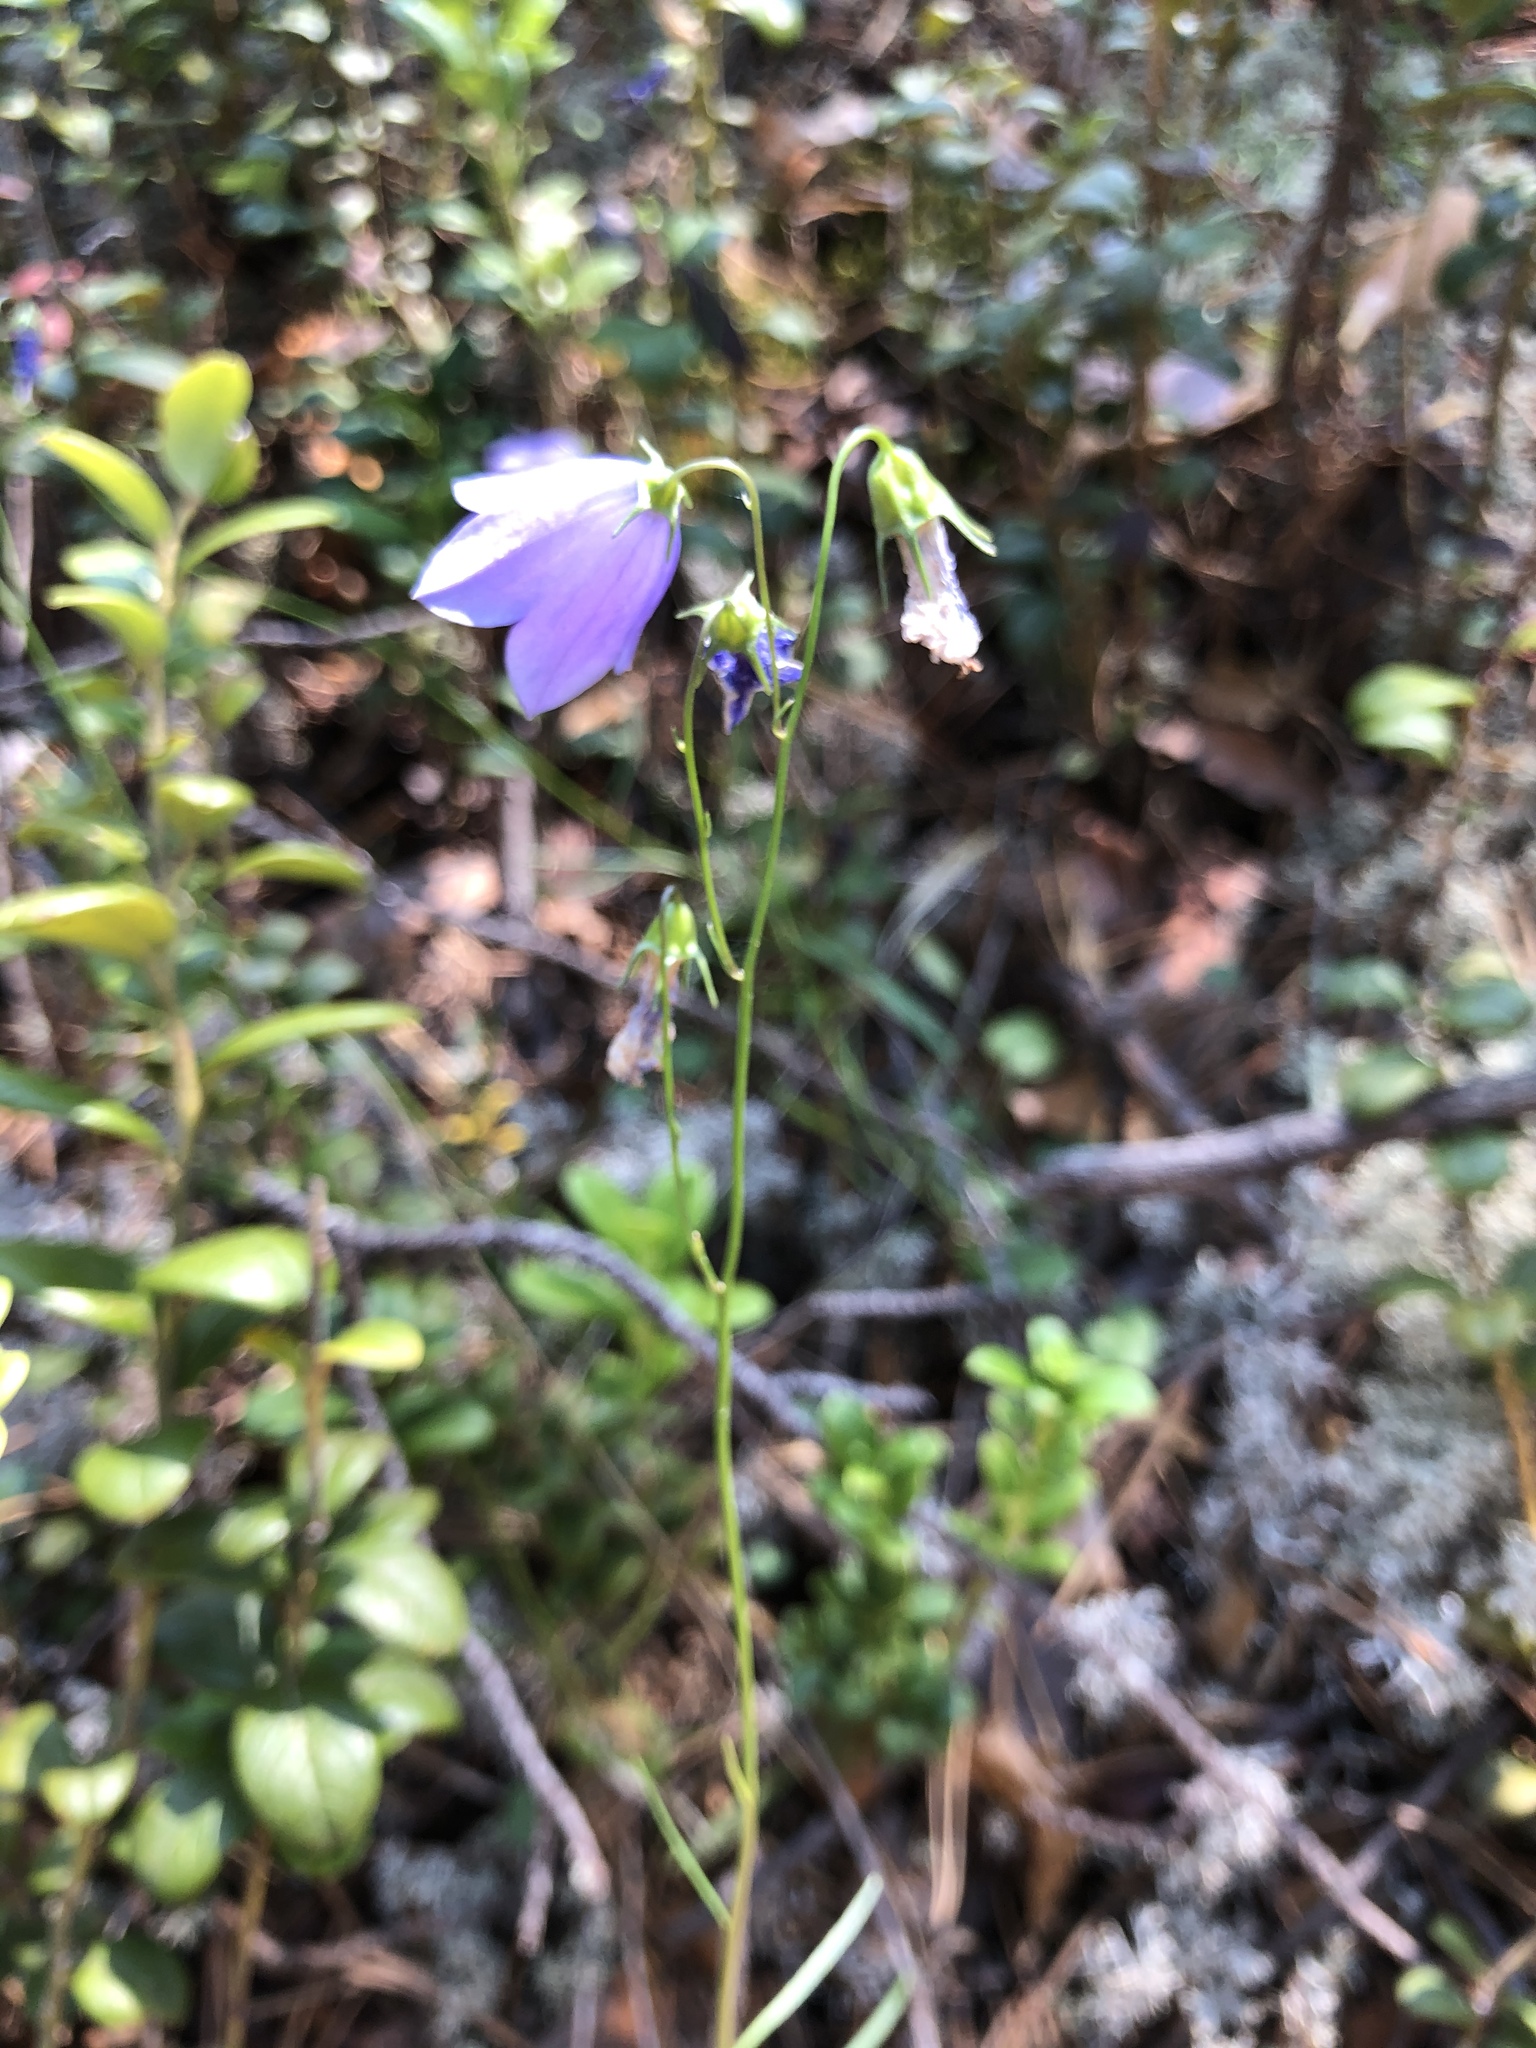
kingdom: Plantae
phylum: Tracheophyta
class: Magnoliopsida
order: Asterales
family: Campanulaceae
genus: Campanula
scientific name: Campanula rotundifolia
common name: Harebell
